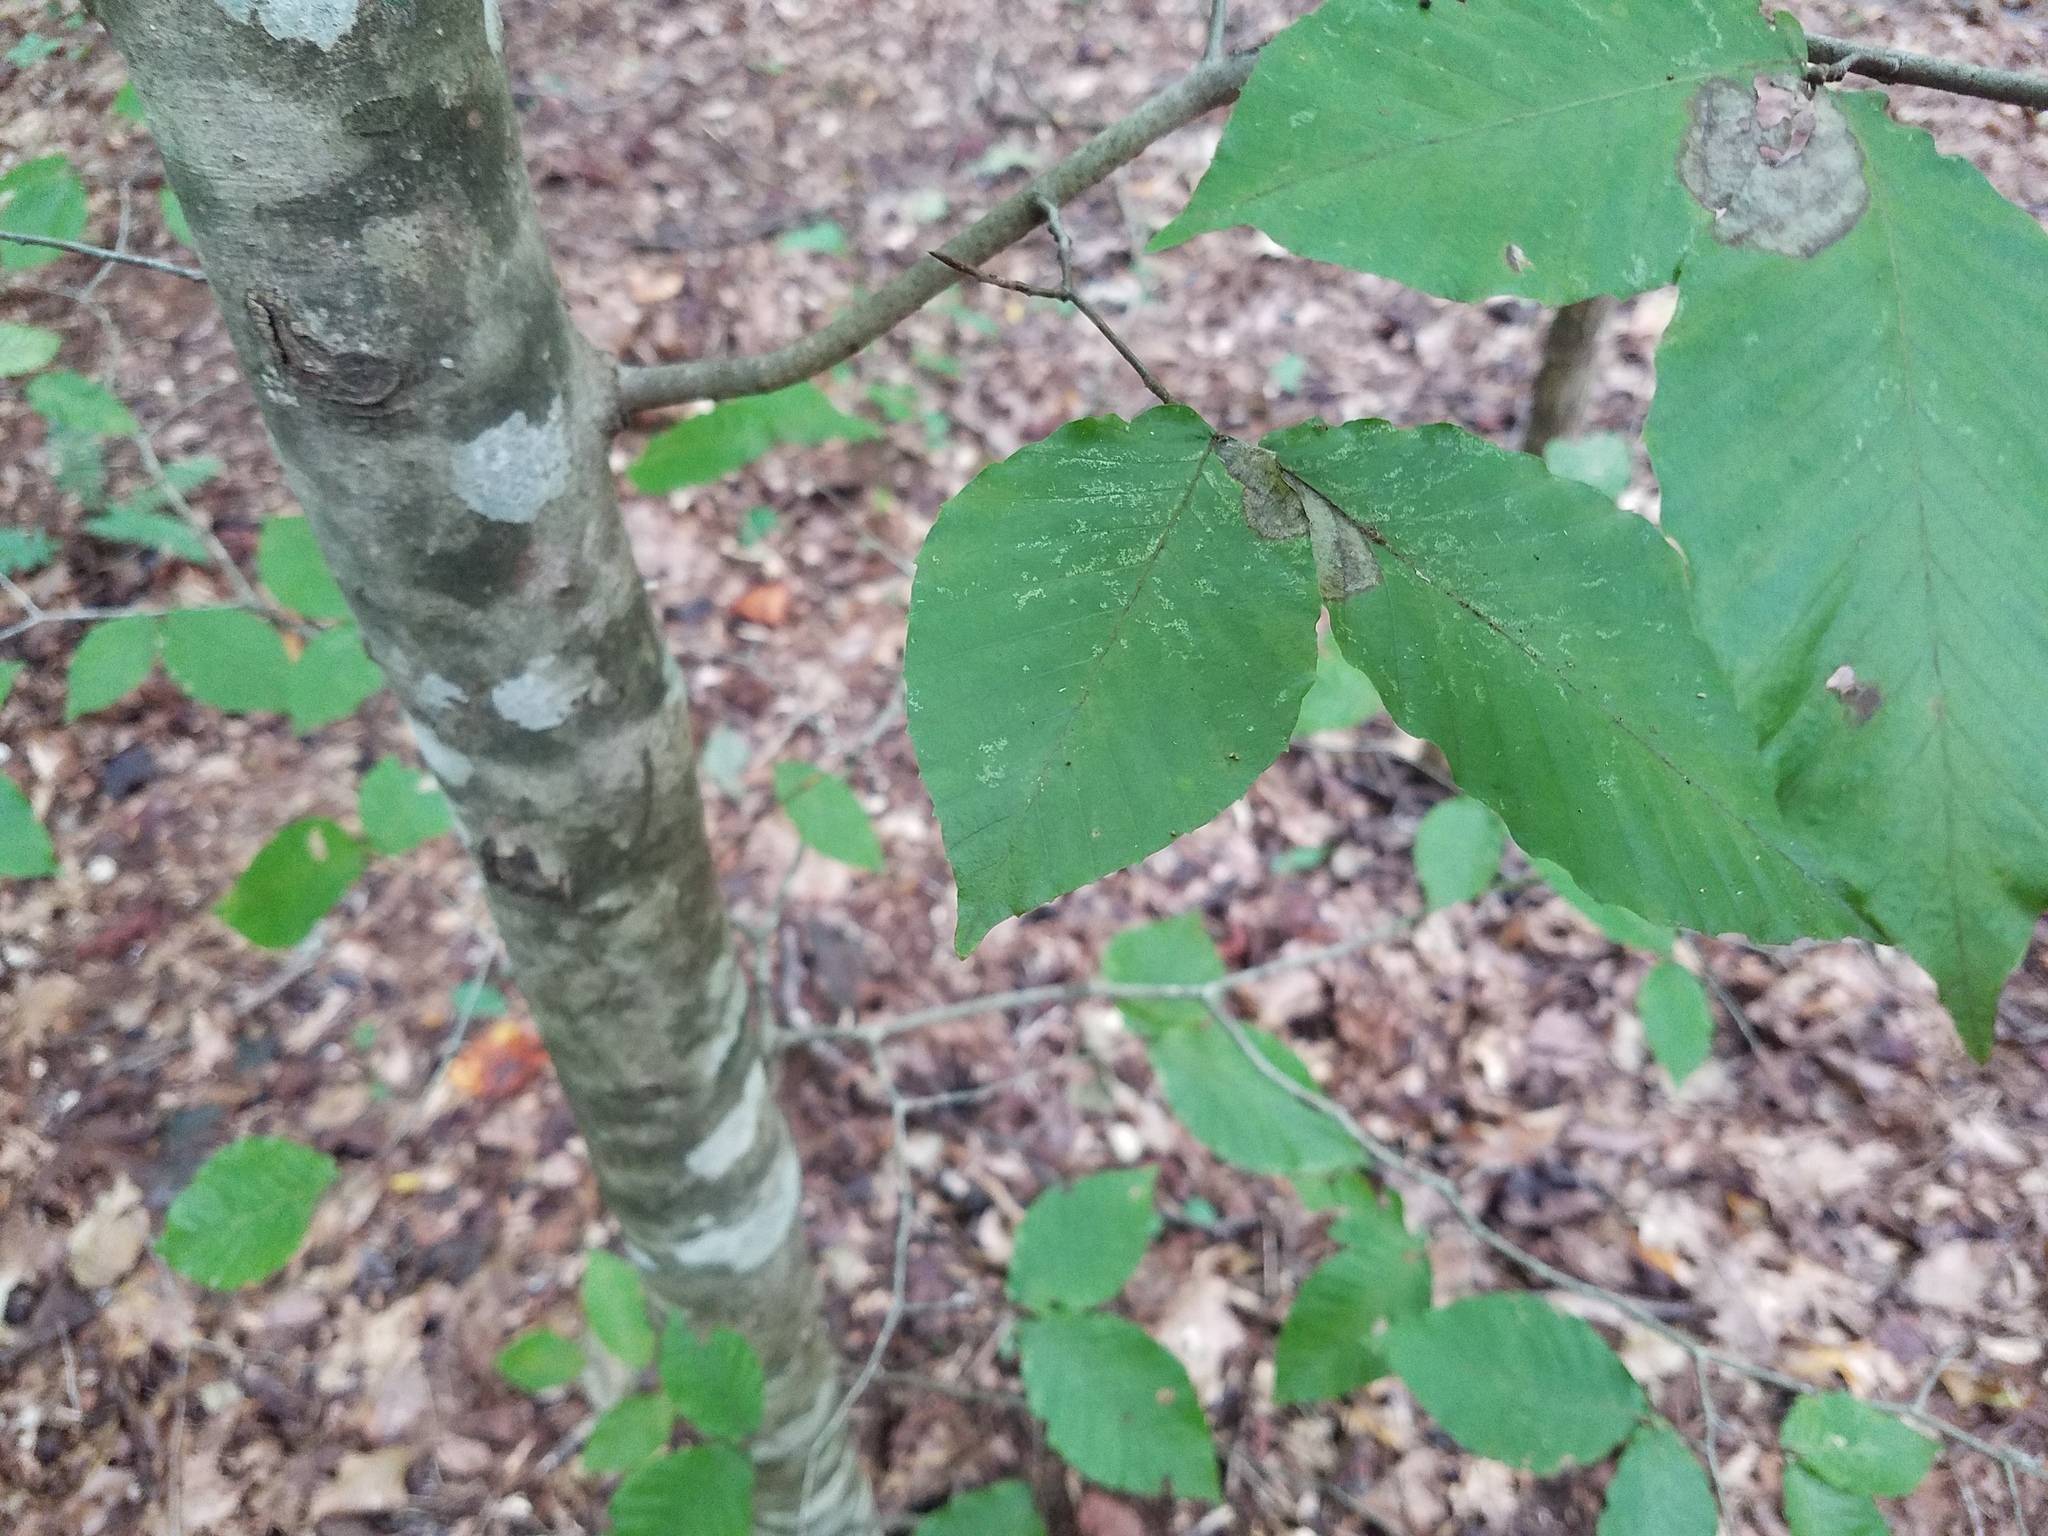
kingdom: Plantae
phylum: Tracheophyta
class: Magnoliopsida
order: Fagales
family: Fagaceae
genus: Fagus
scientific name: Fagus grandifolia
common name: American beech
